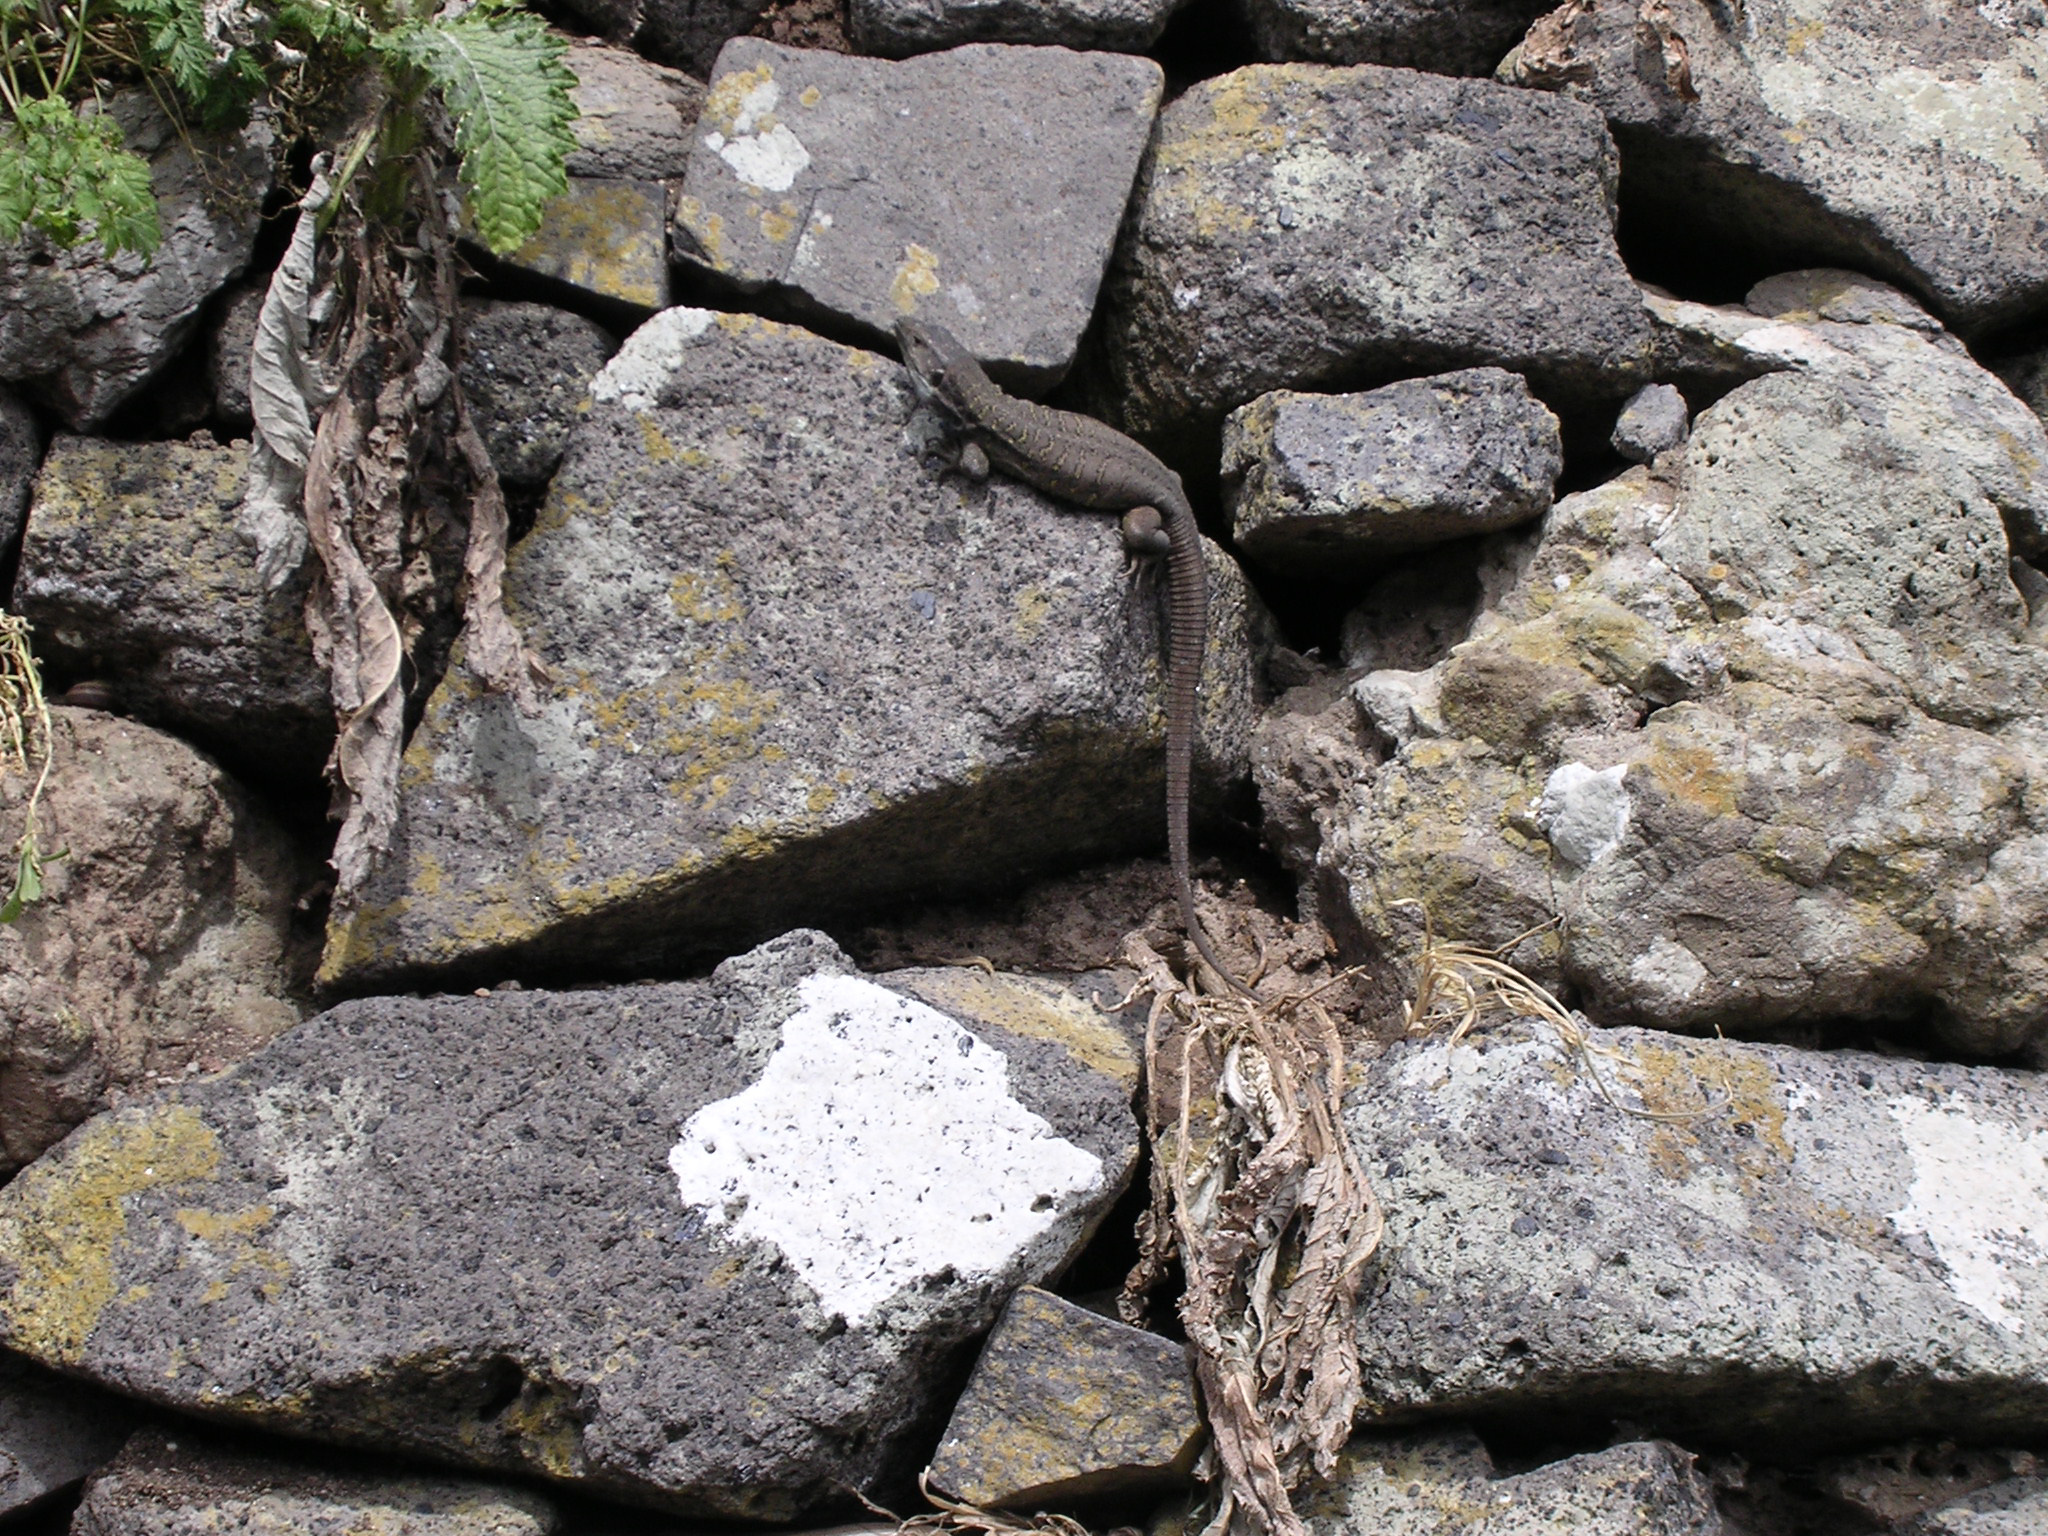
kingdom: Animalia
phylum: Chordata
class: Squamata
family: Lacertidae
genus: Gallotia
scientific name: Gallotia galloti
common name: Gallot's lizard
